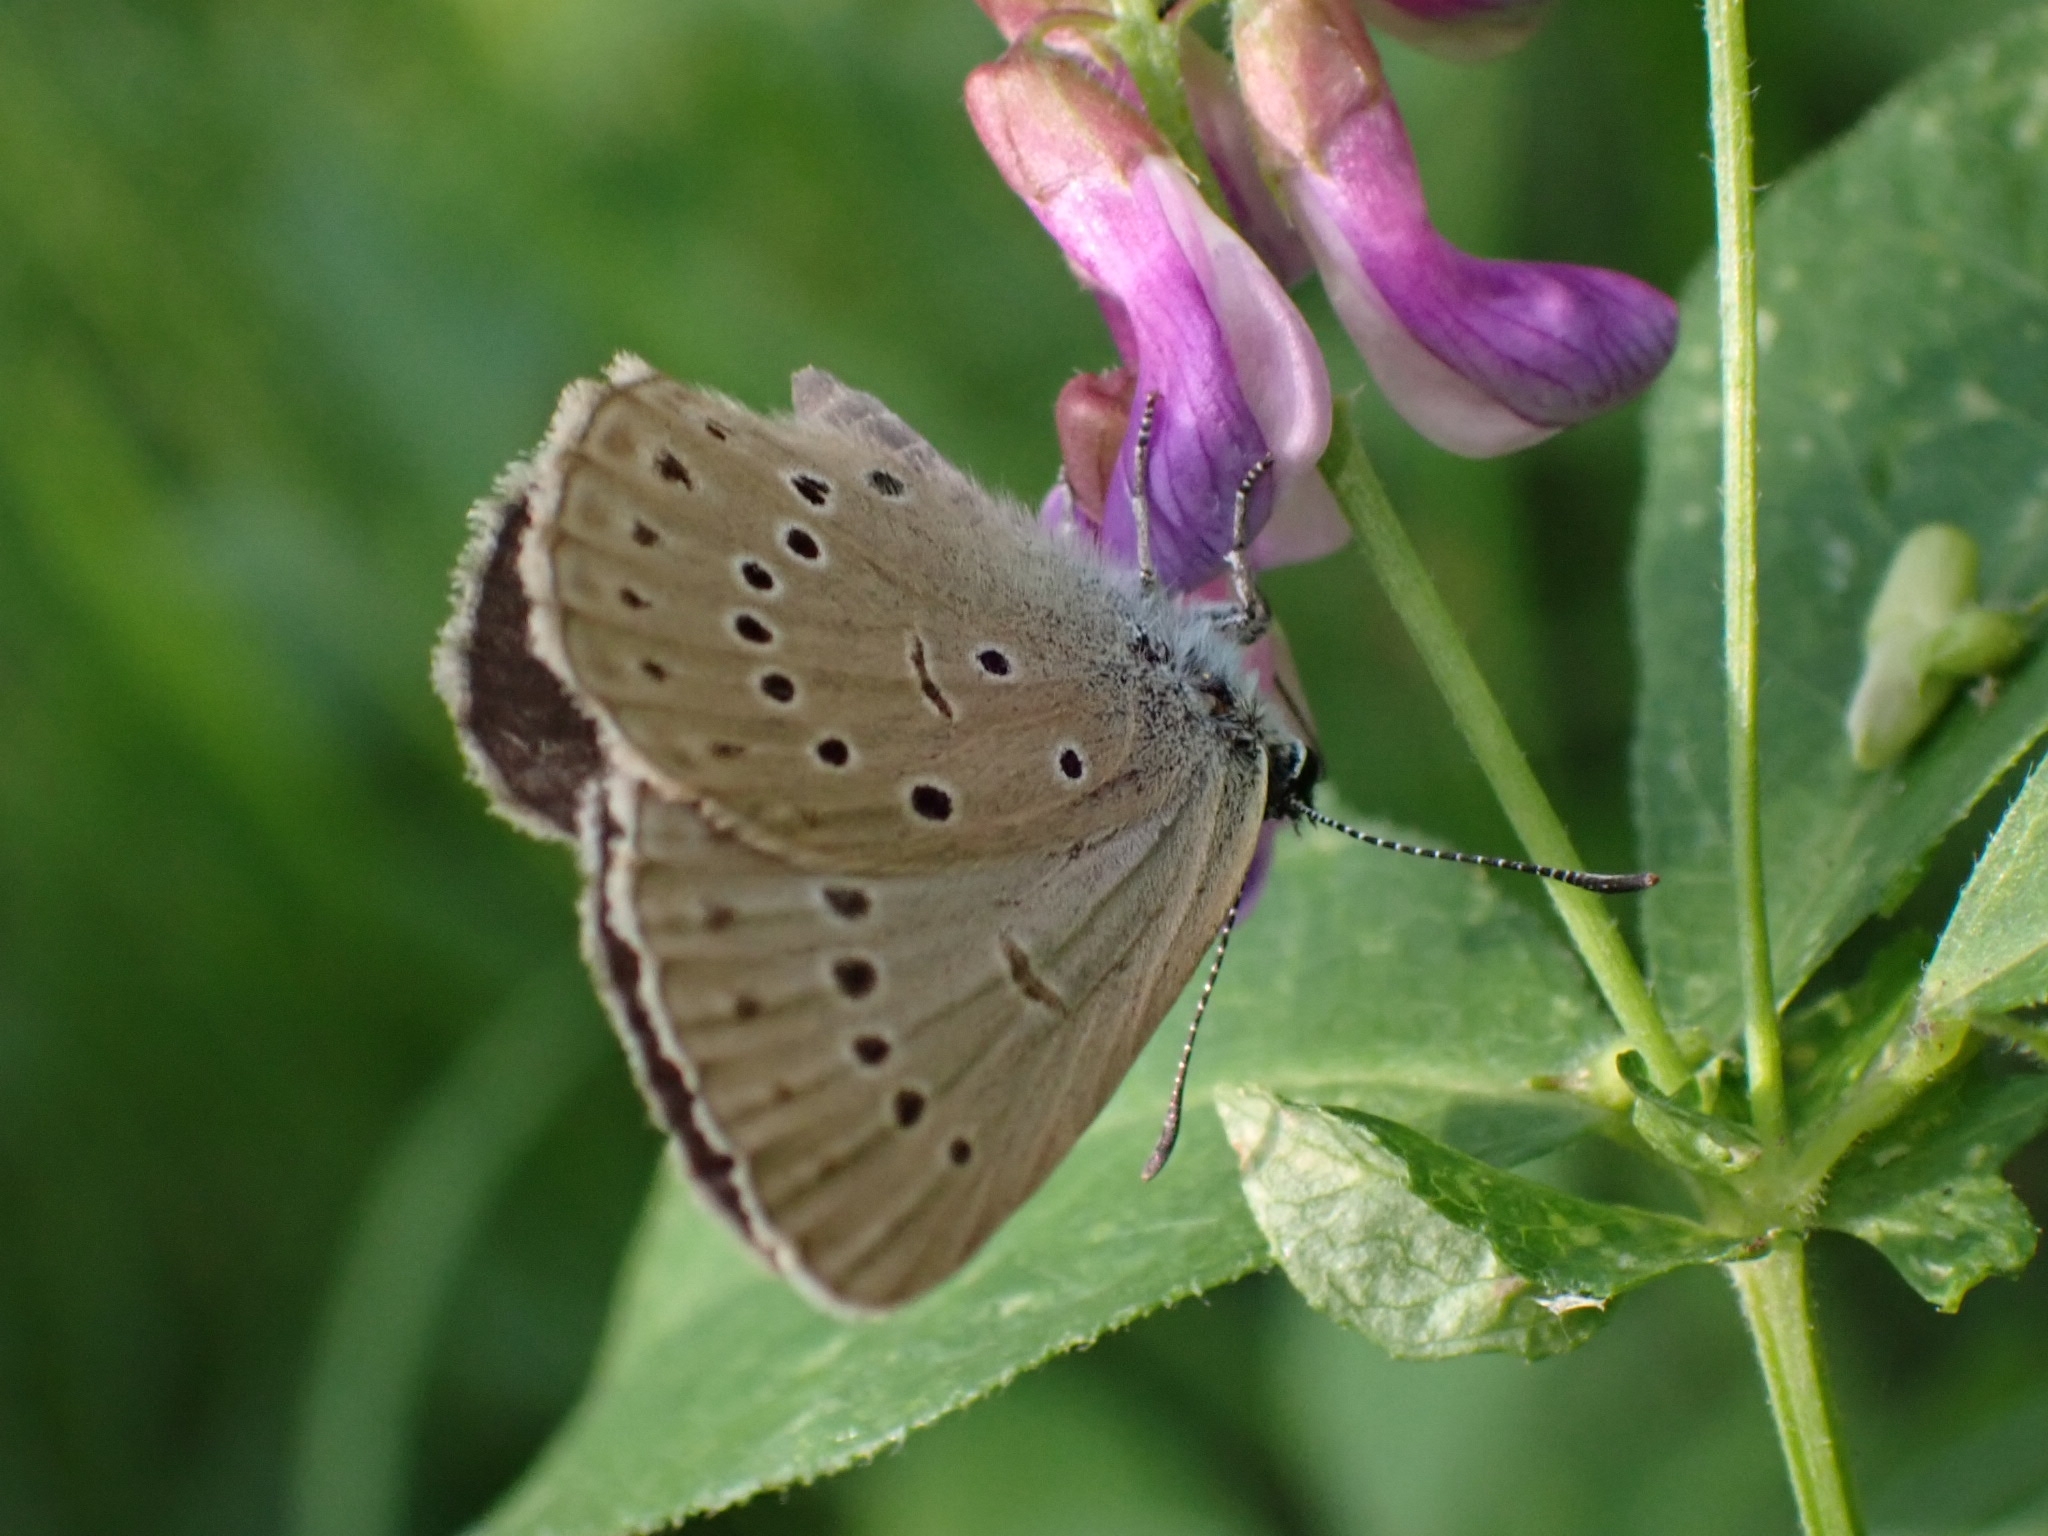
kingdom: Animalia
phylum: Arthropoda
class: Insecta
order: Lepidoptera
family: Lycaenidae
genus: Phengaris
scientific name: Phengaris teleius
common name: Scarce large blue
